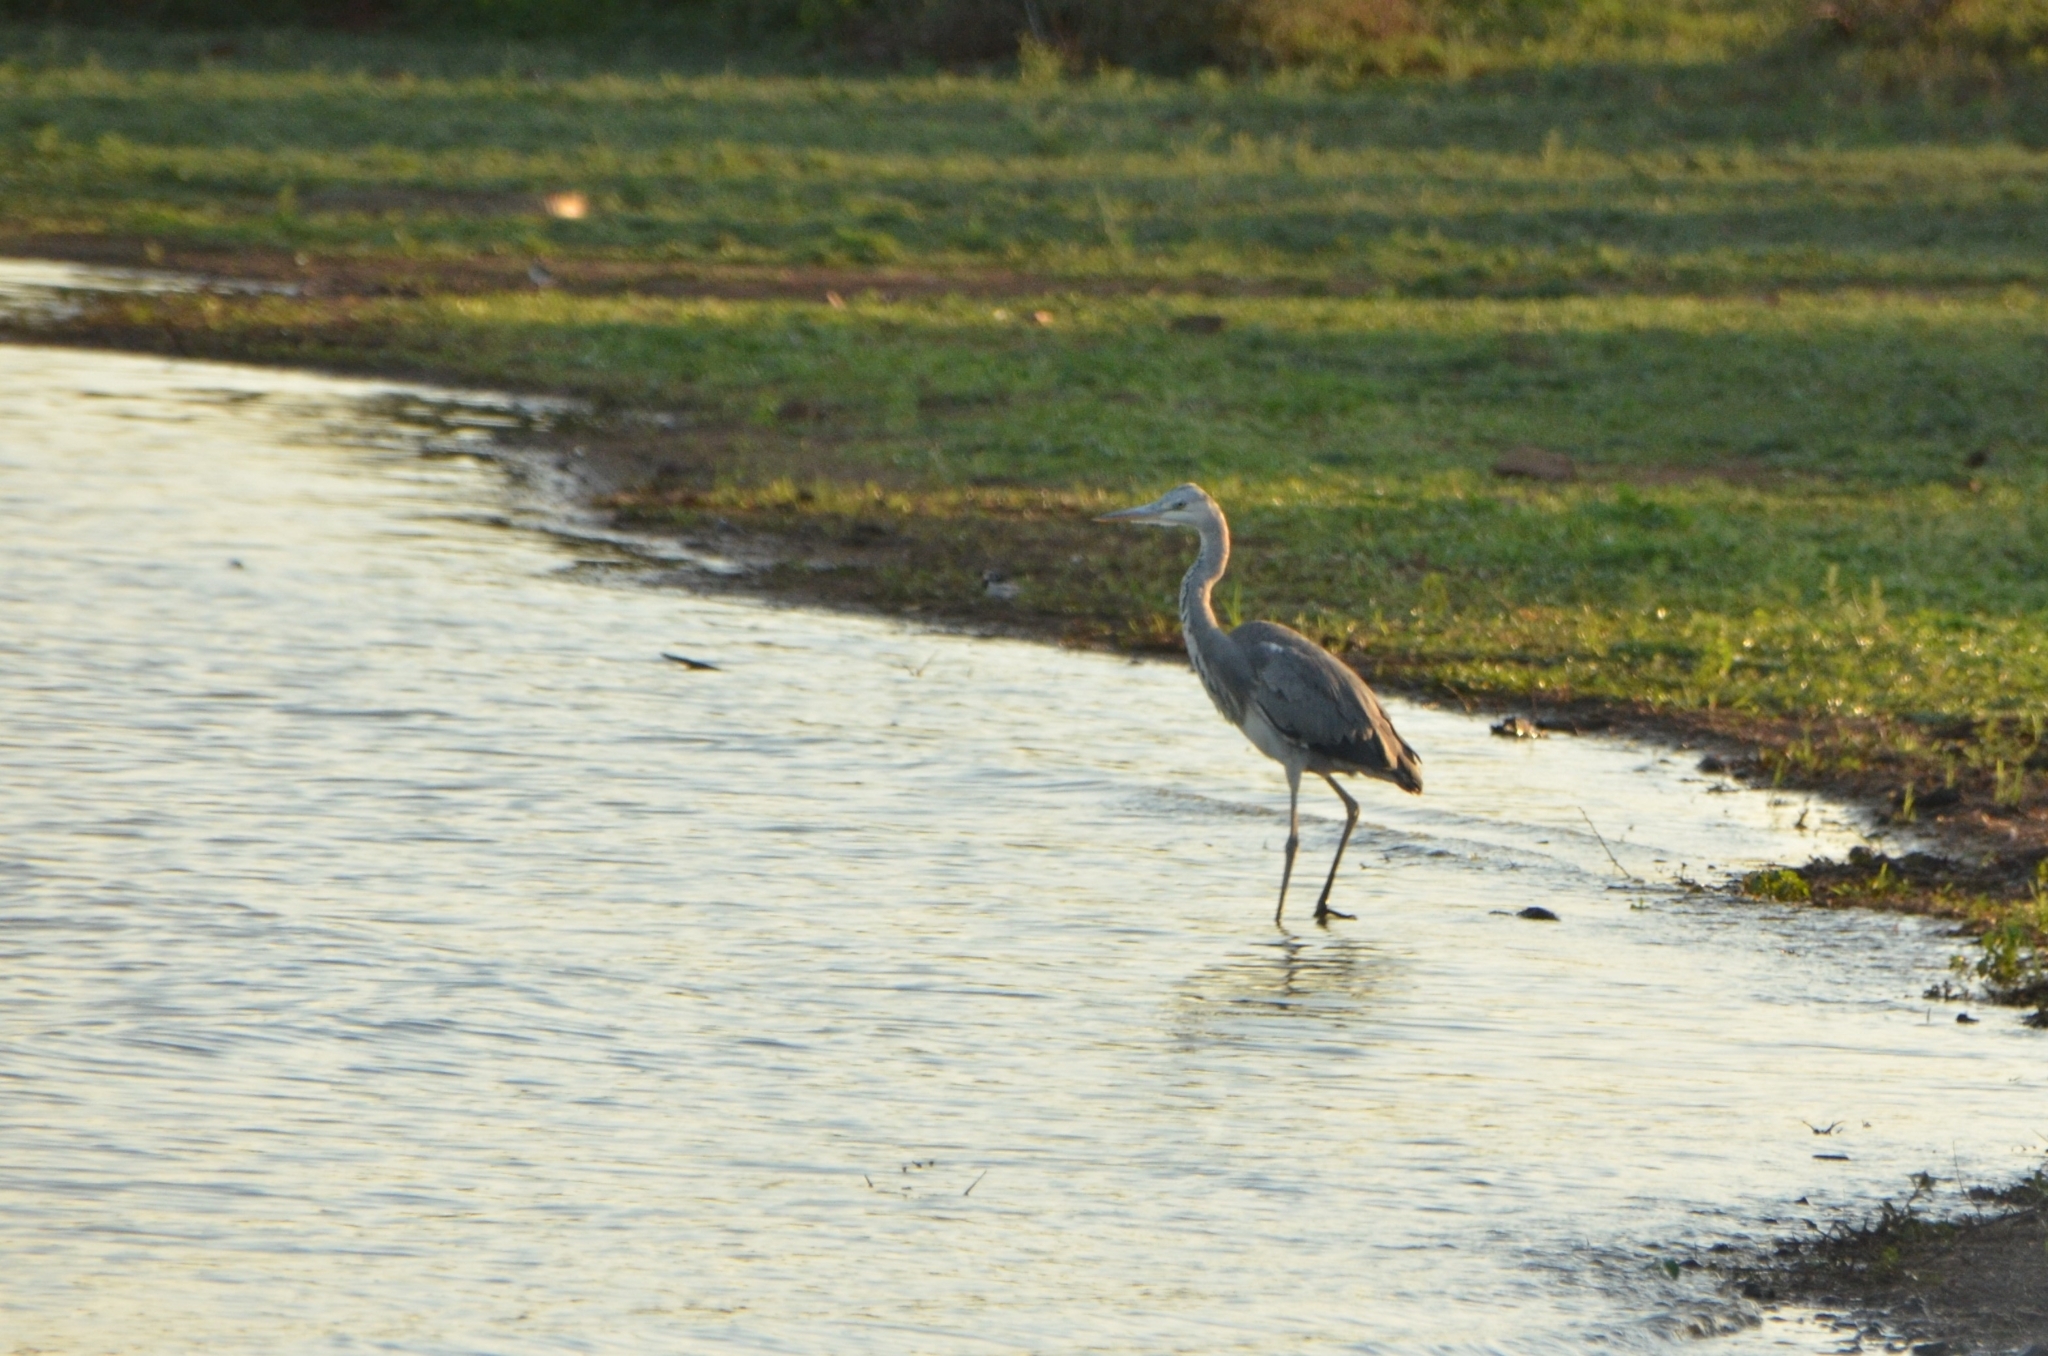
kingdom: Animalia
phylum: Chordata
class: Aves
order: Pelecaniformes
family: Ardeidae
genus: Ardea
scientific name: Ardea cinerea
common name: Grey heron
